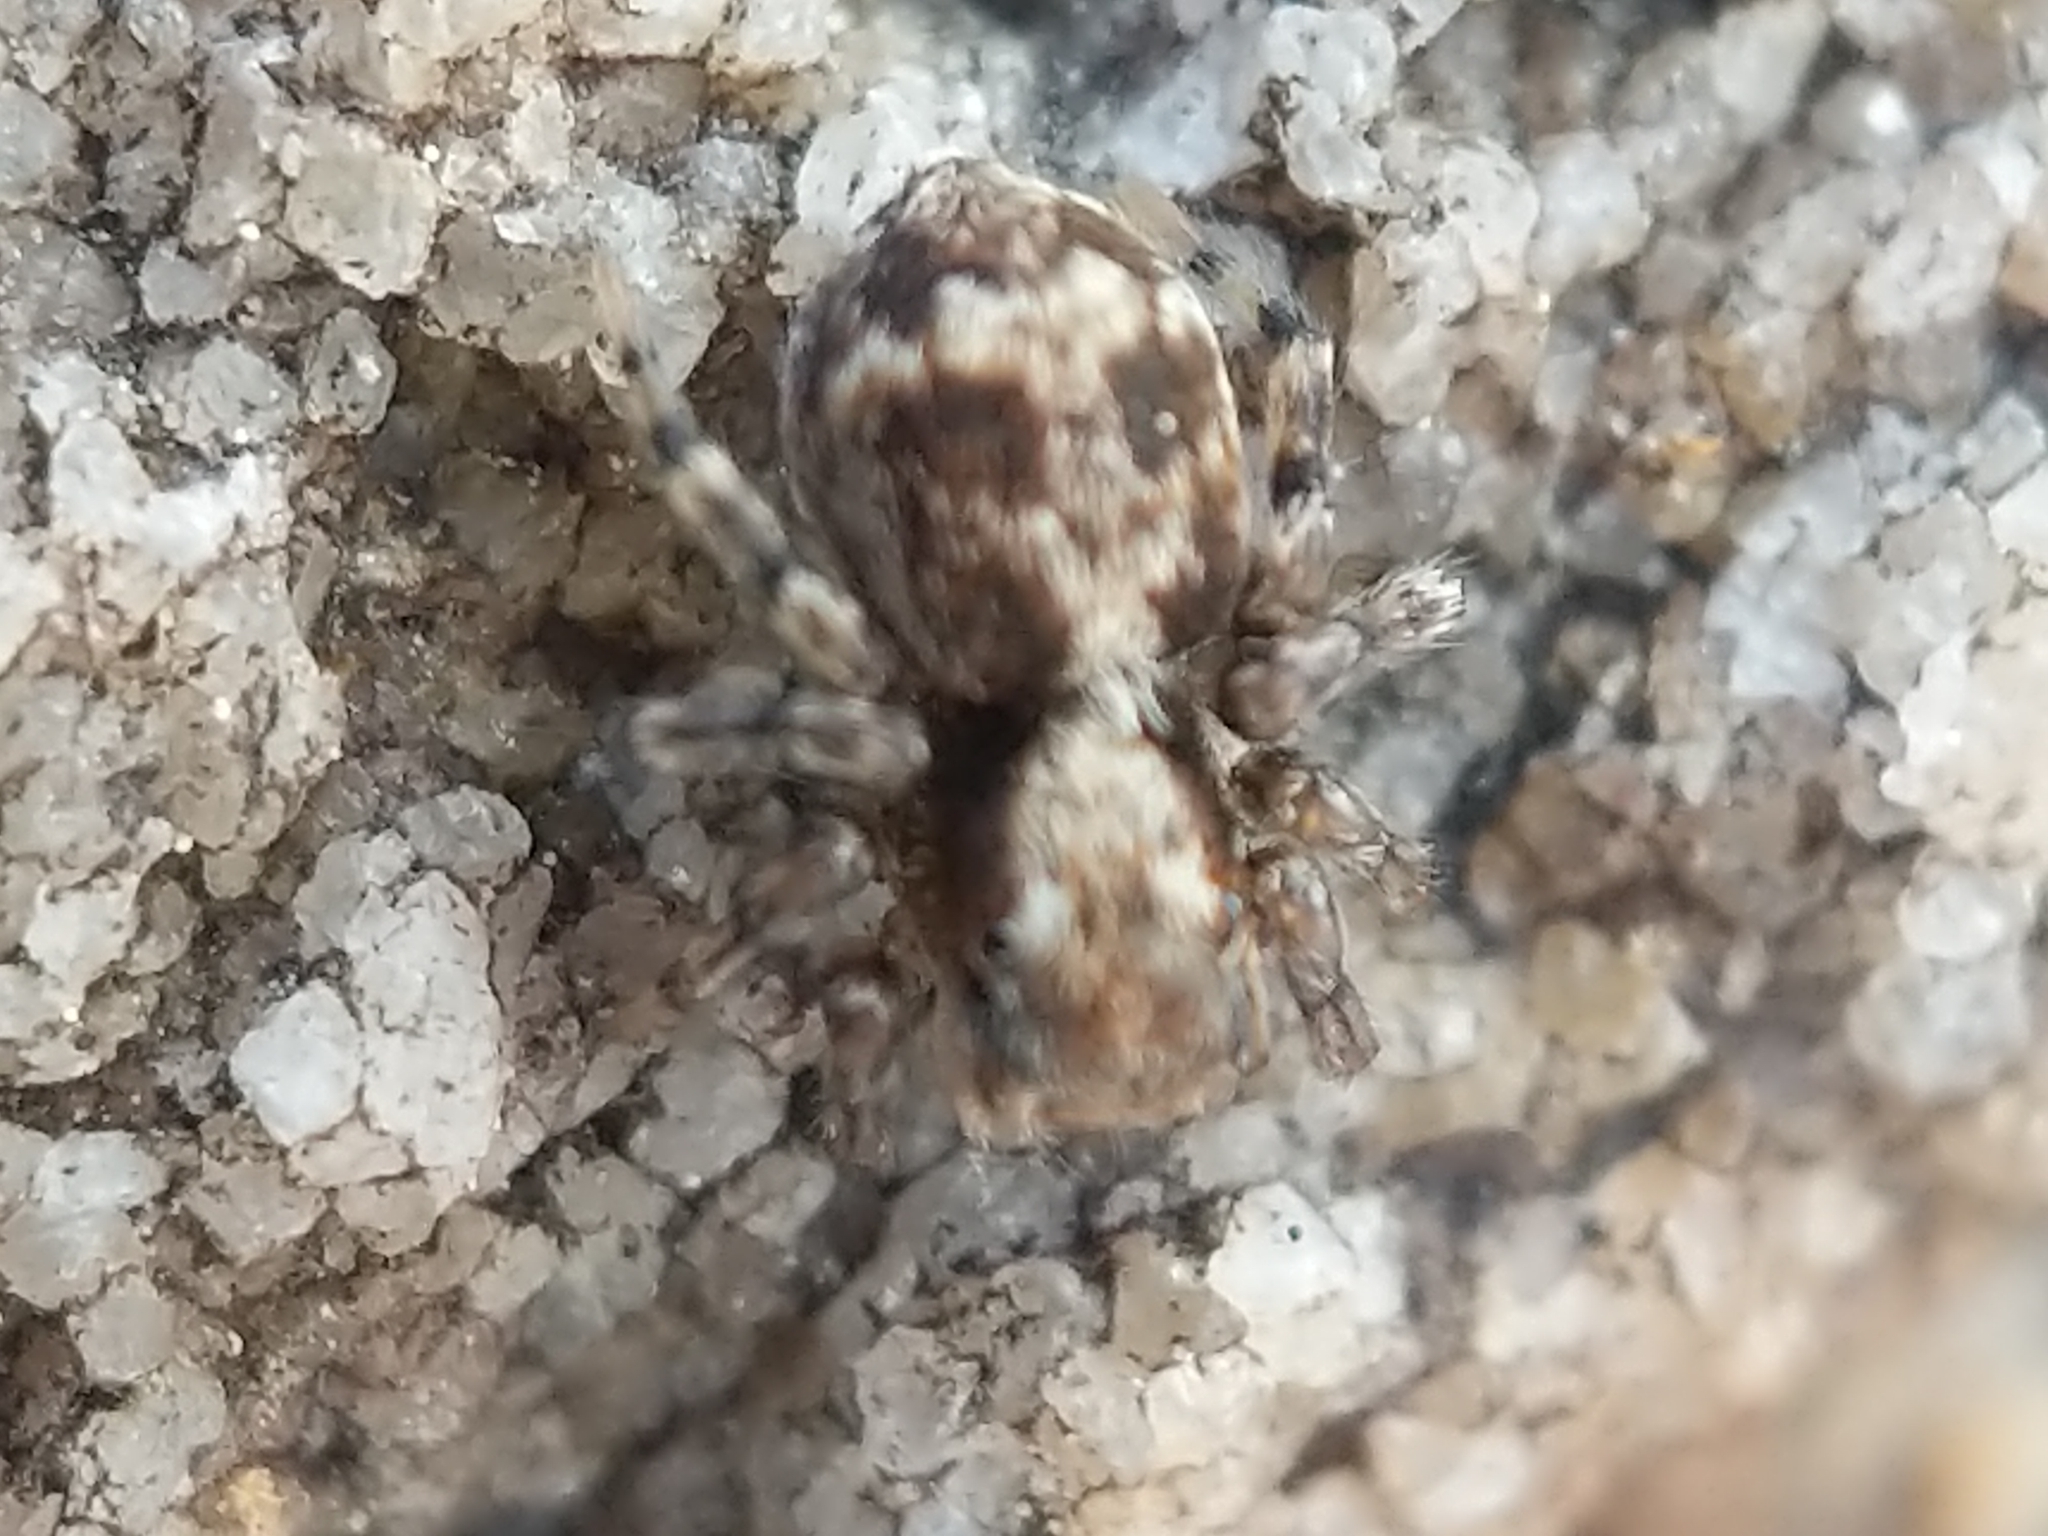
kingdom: Animalia
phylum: Arthropoda
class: Arachnida
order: Araneae
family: Salticidae
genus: Naphrys
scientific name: Naphrys pulex
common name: Flea jumping spider
